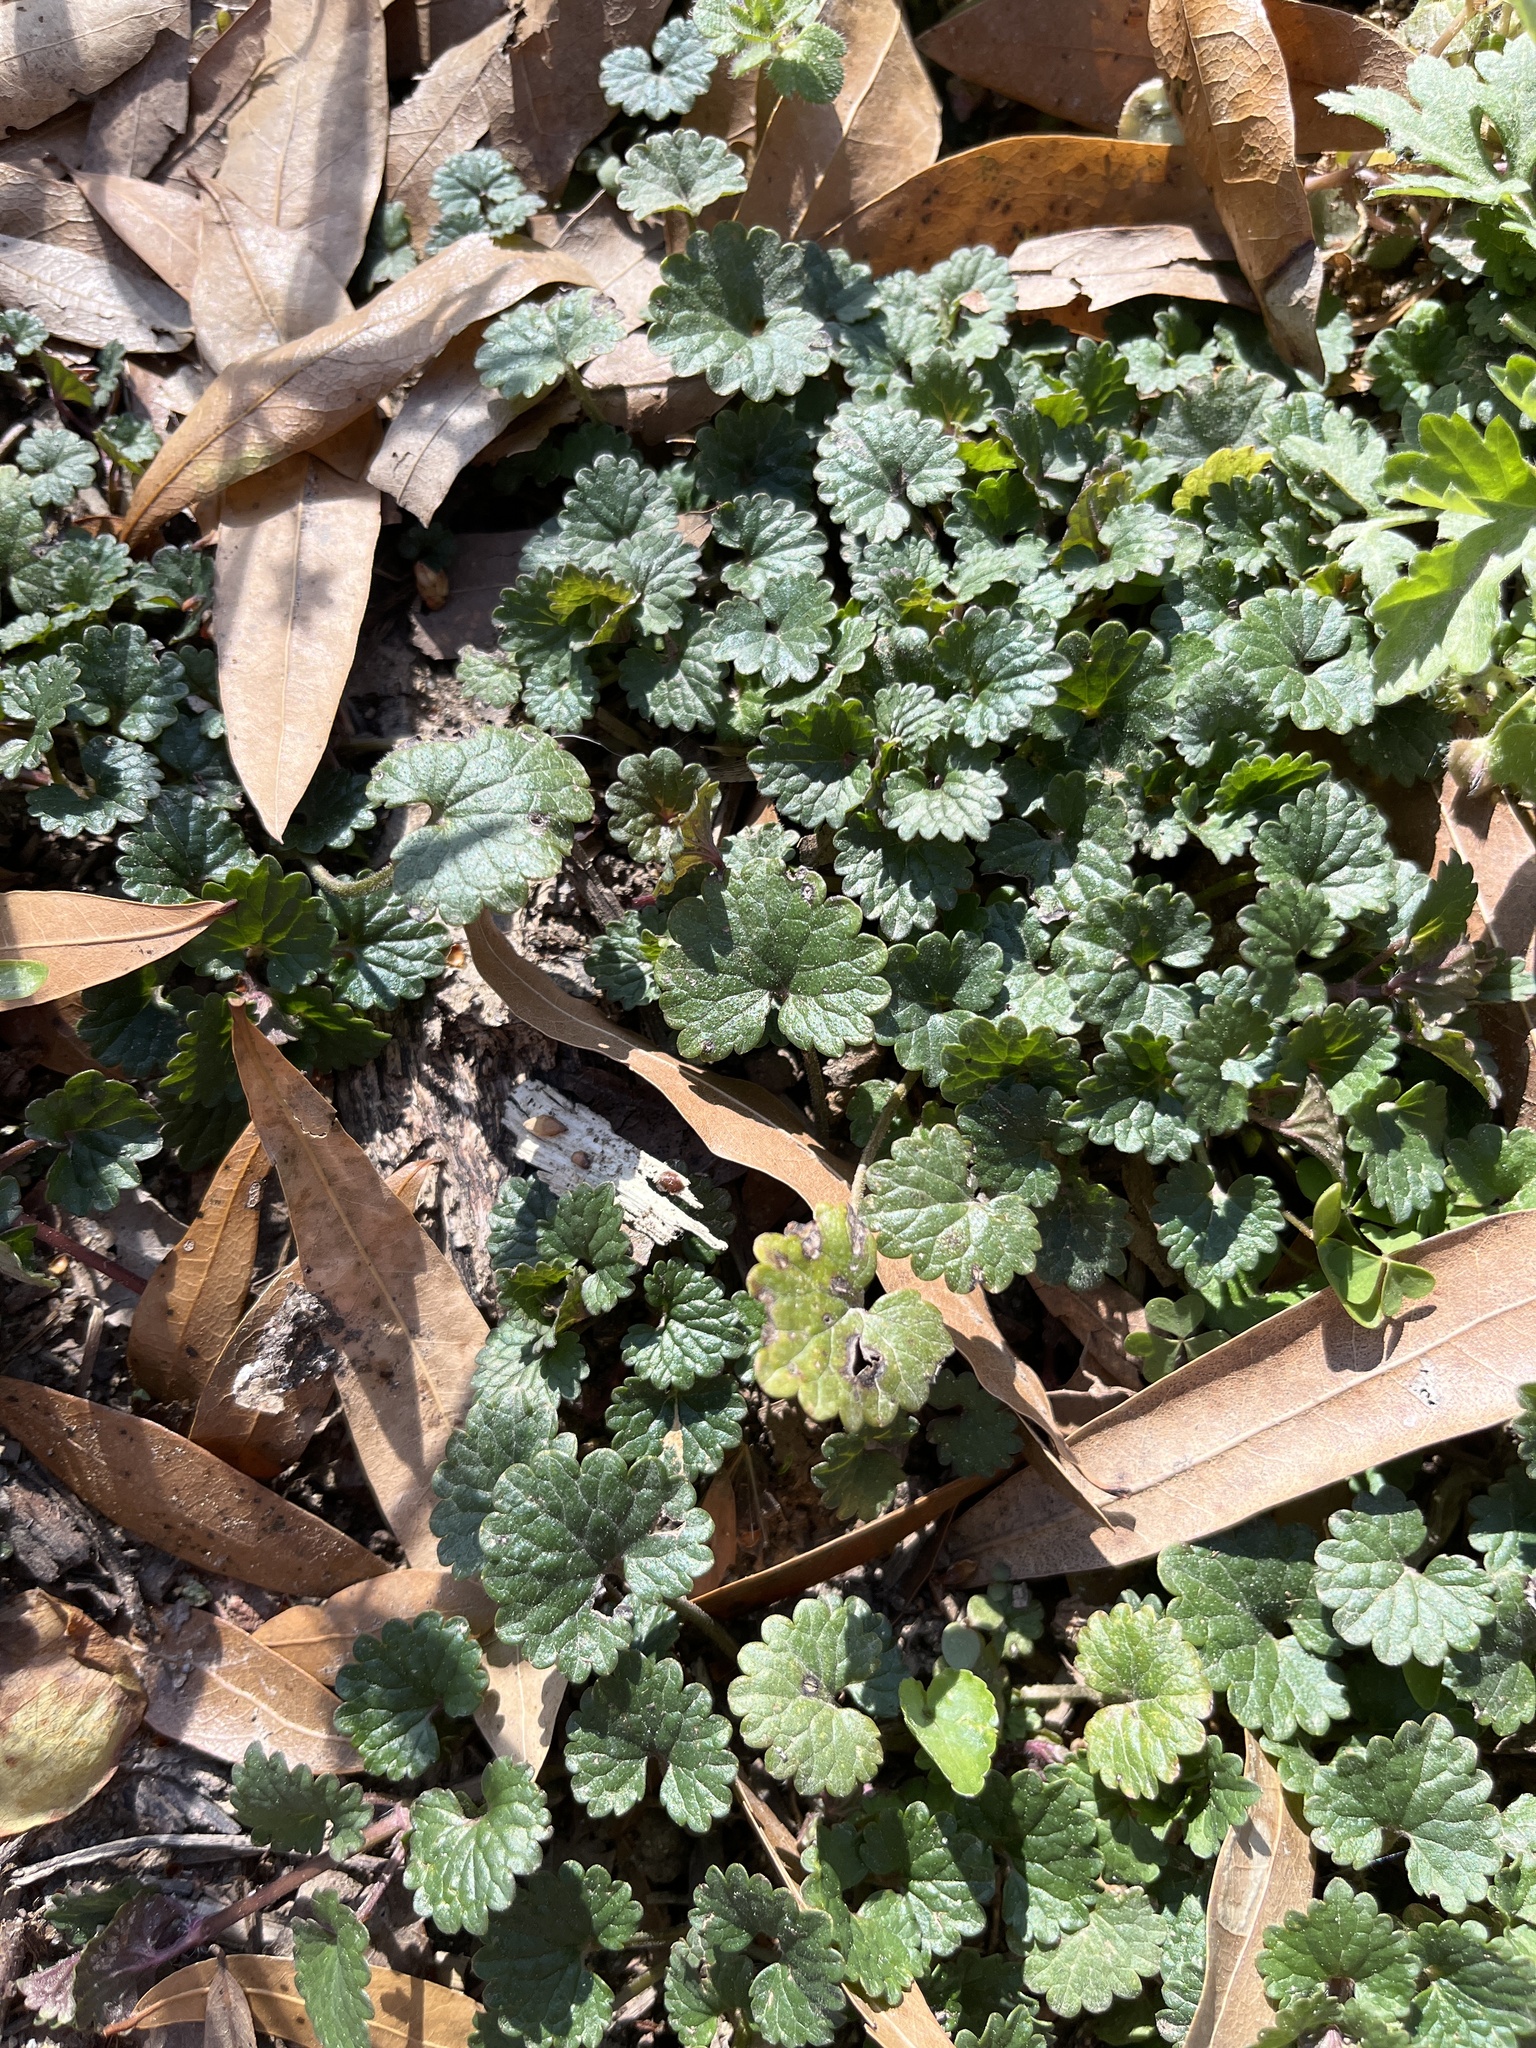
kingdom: Plantae
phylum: Tracheophyta
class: Magnoliopsida
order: Lamiales
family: Lamiaceae
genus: Glechoma
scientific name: Glechoma hederacea
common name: Ground ivy
